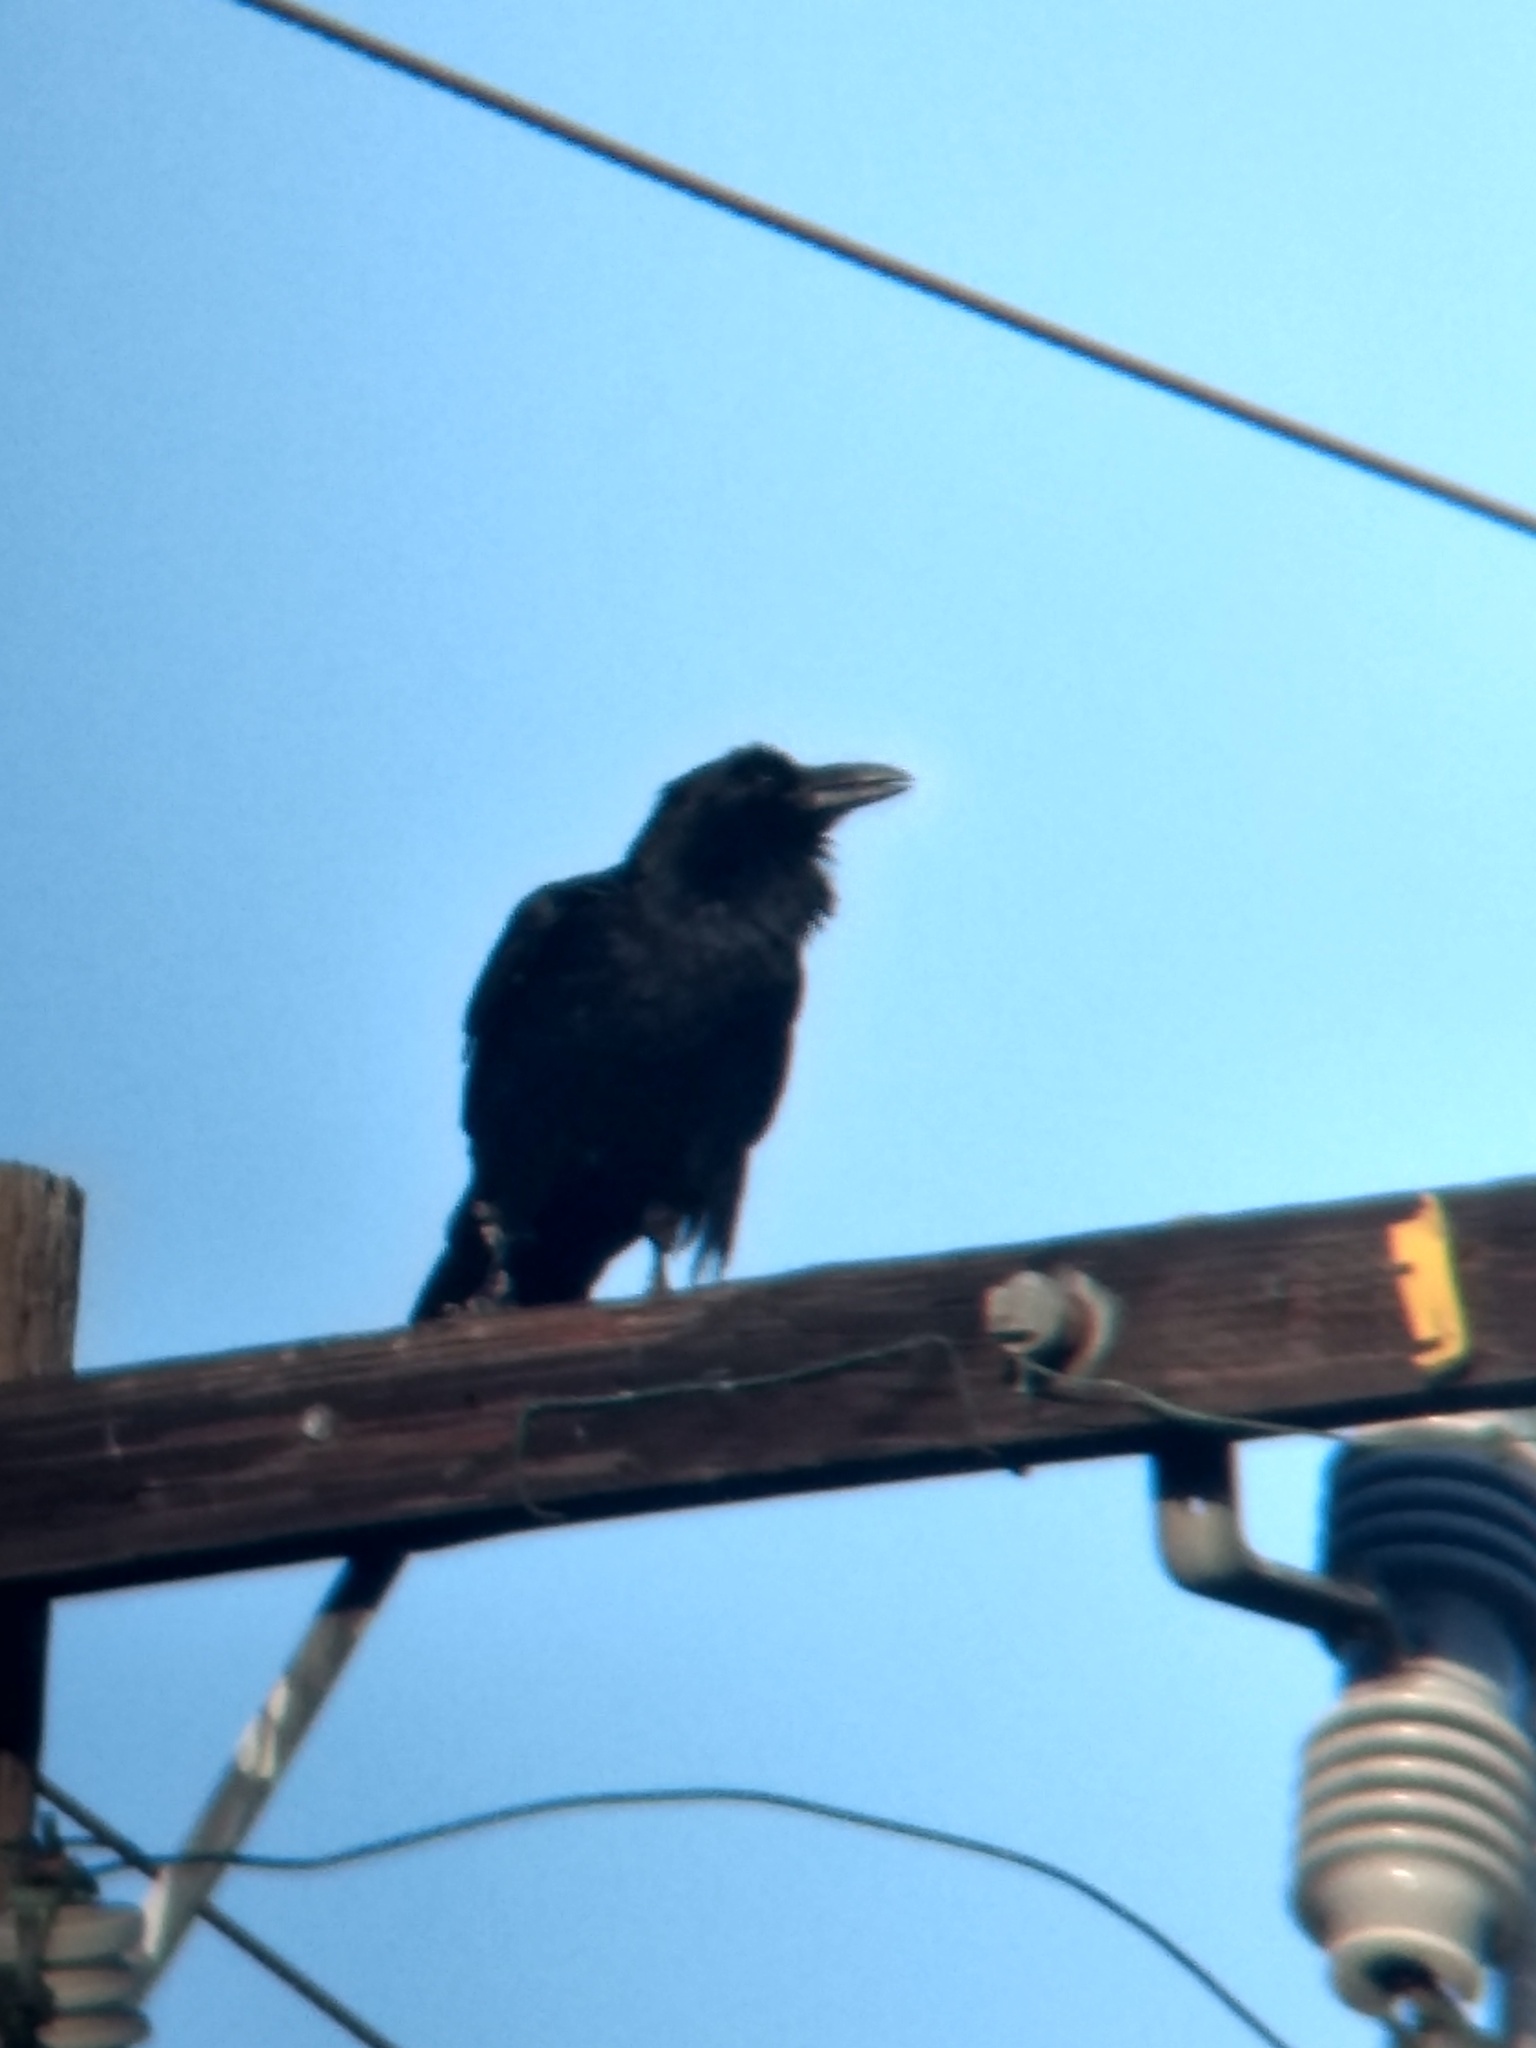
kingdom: Animalia
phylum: Chordata
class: Aves
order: Passeriformes
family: Corvidae
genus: Corvus
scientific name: Corvus corax
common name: Common raven
